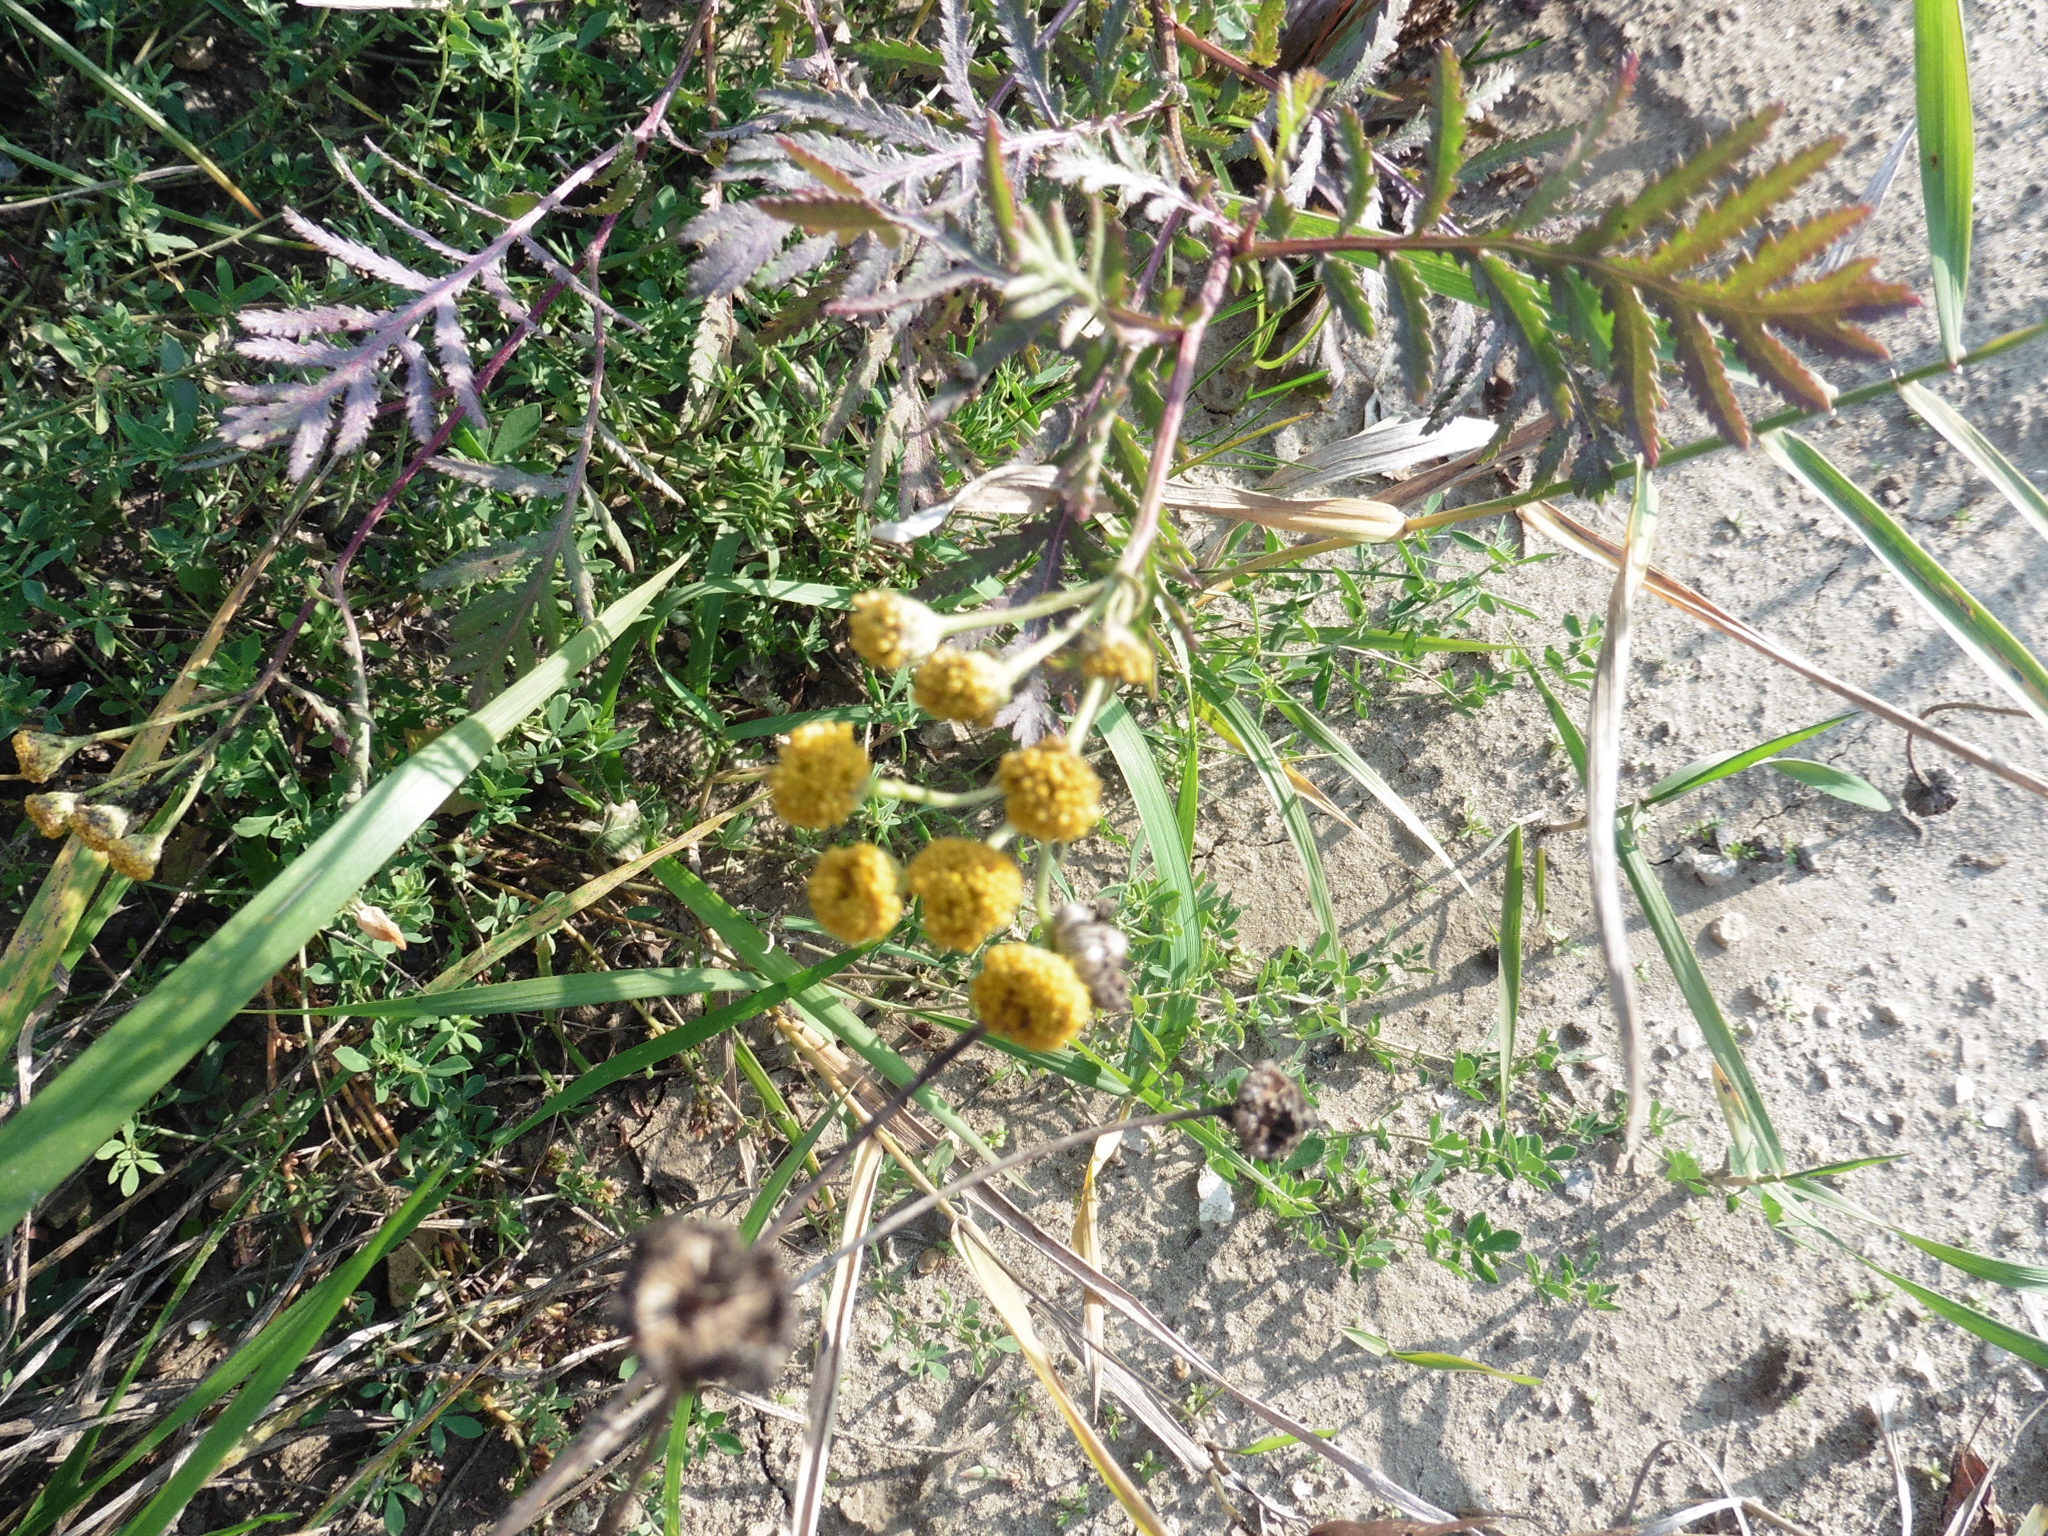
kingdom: Plantae
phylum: Tracheophyta
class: Magnoliopsida
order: Asterales
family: Asteraceae
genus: Tanacetum
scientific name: Tanacetum vulgare
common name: Common tansy
